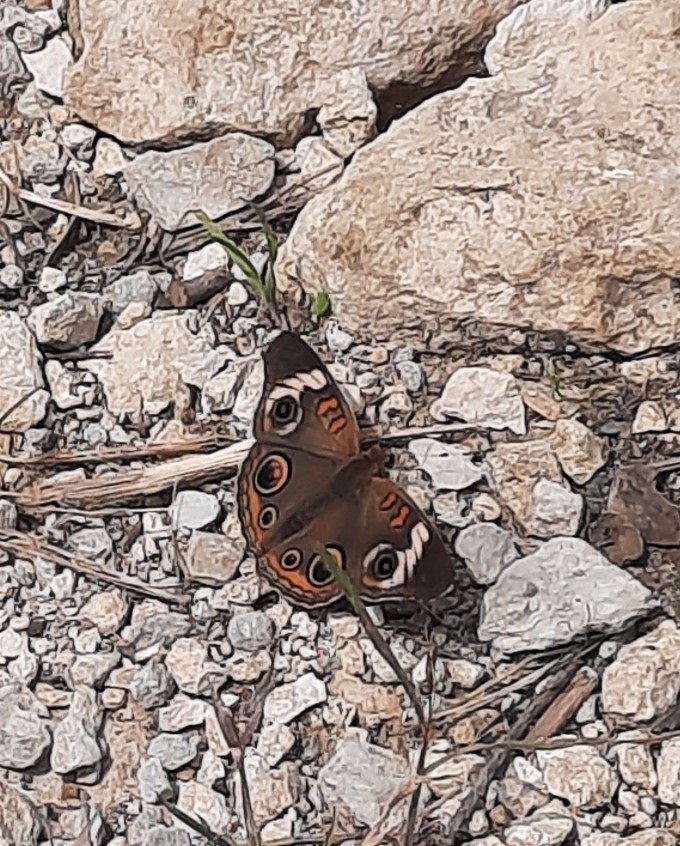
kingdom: Animalia
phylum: Arthropoda
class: Insecta
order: Lepidoptera
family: Nymphalidae
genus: Junonia
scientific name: Junonia coenia
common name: Common buckeye
